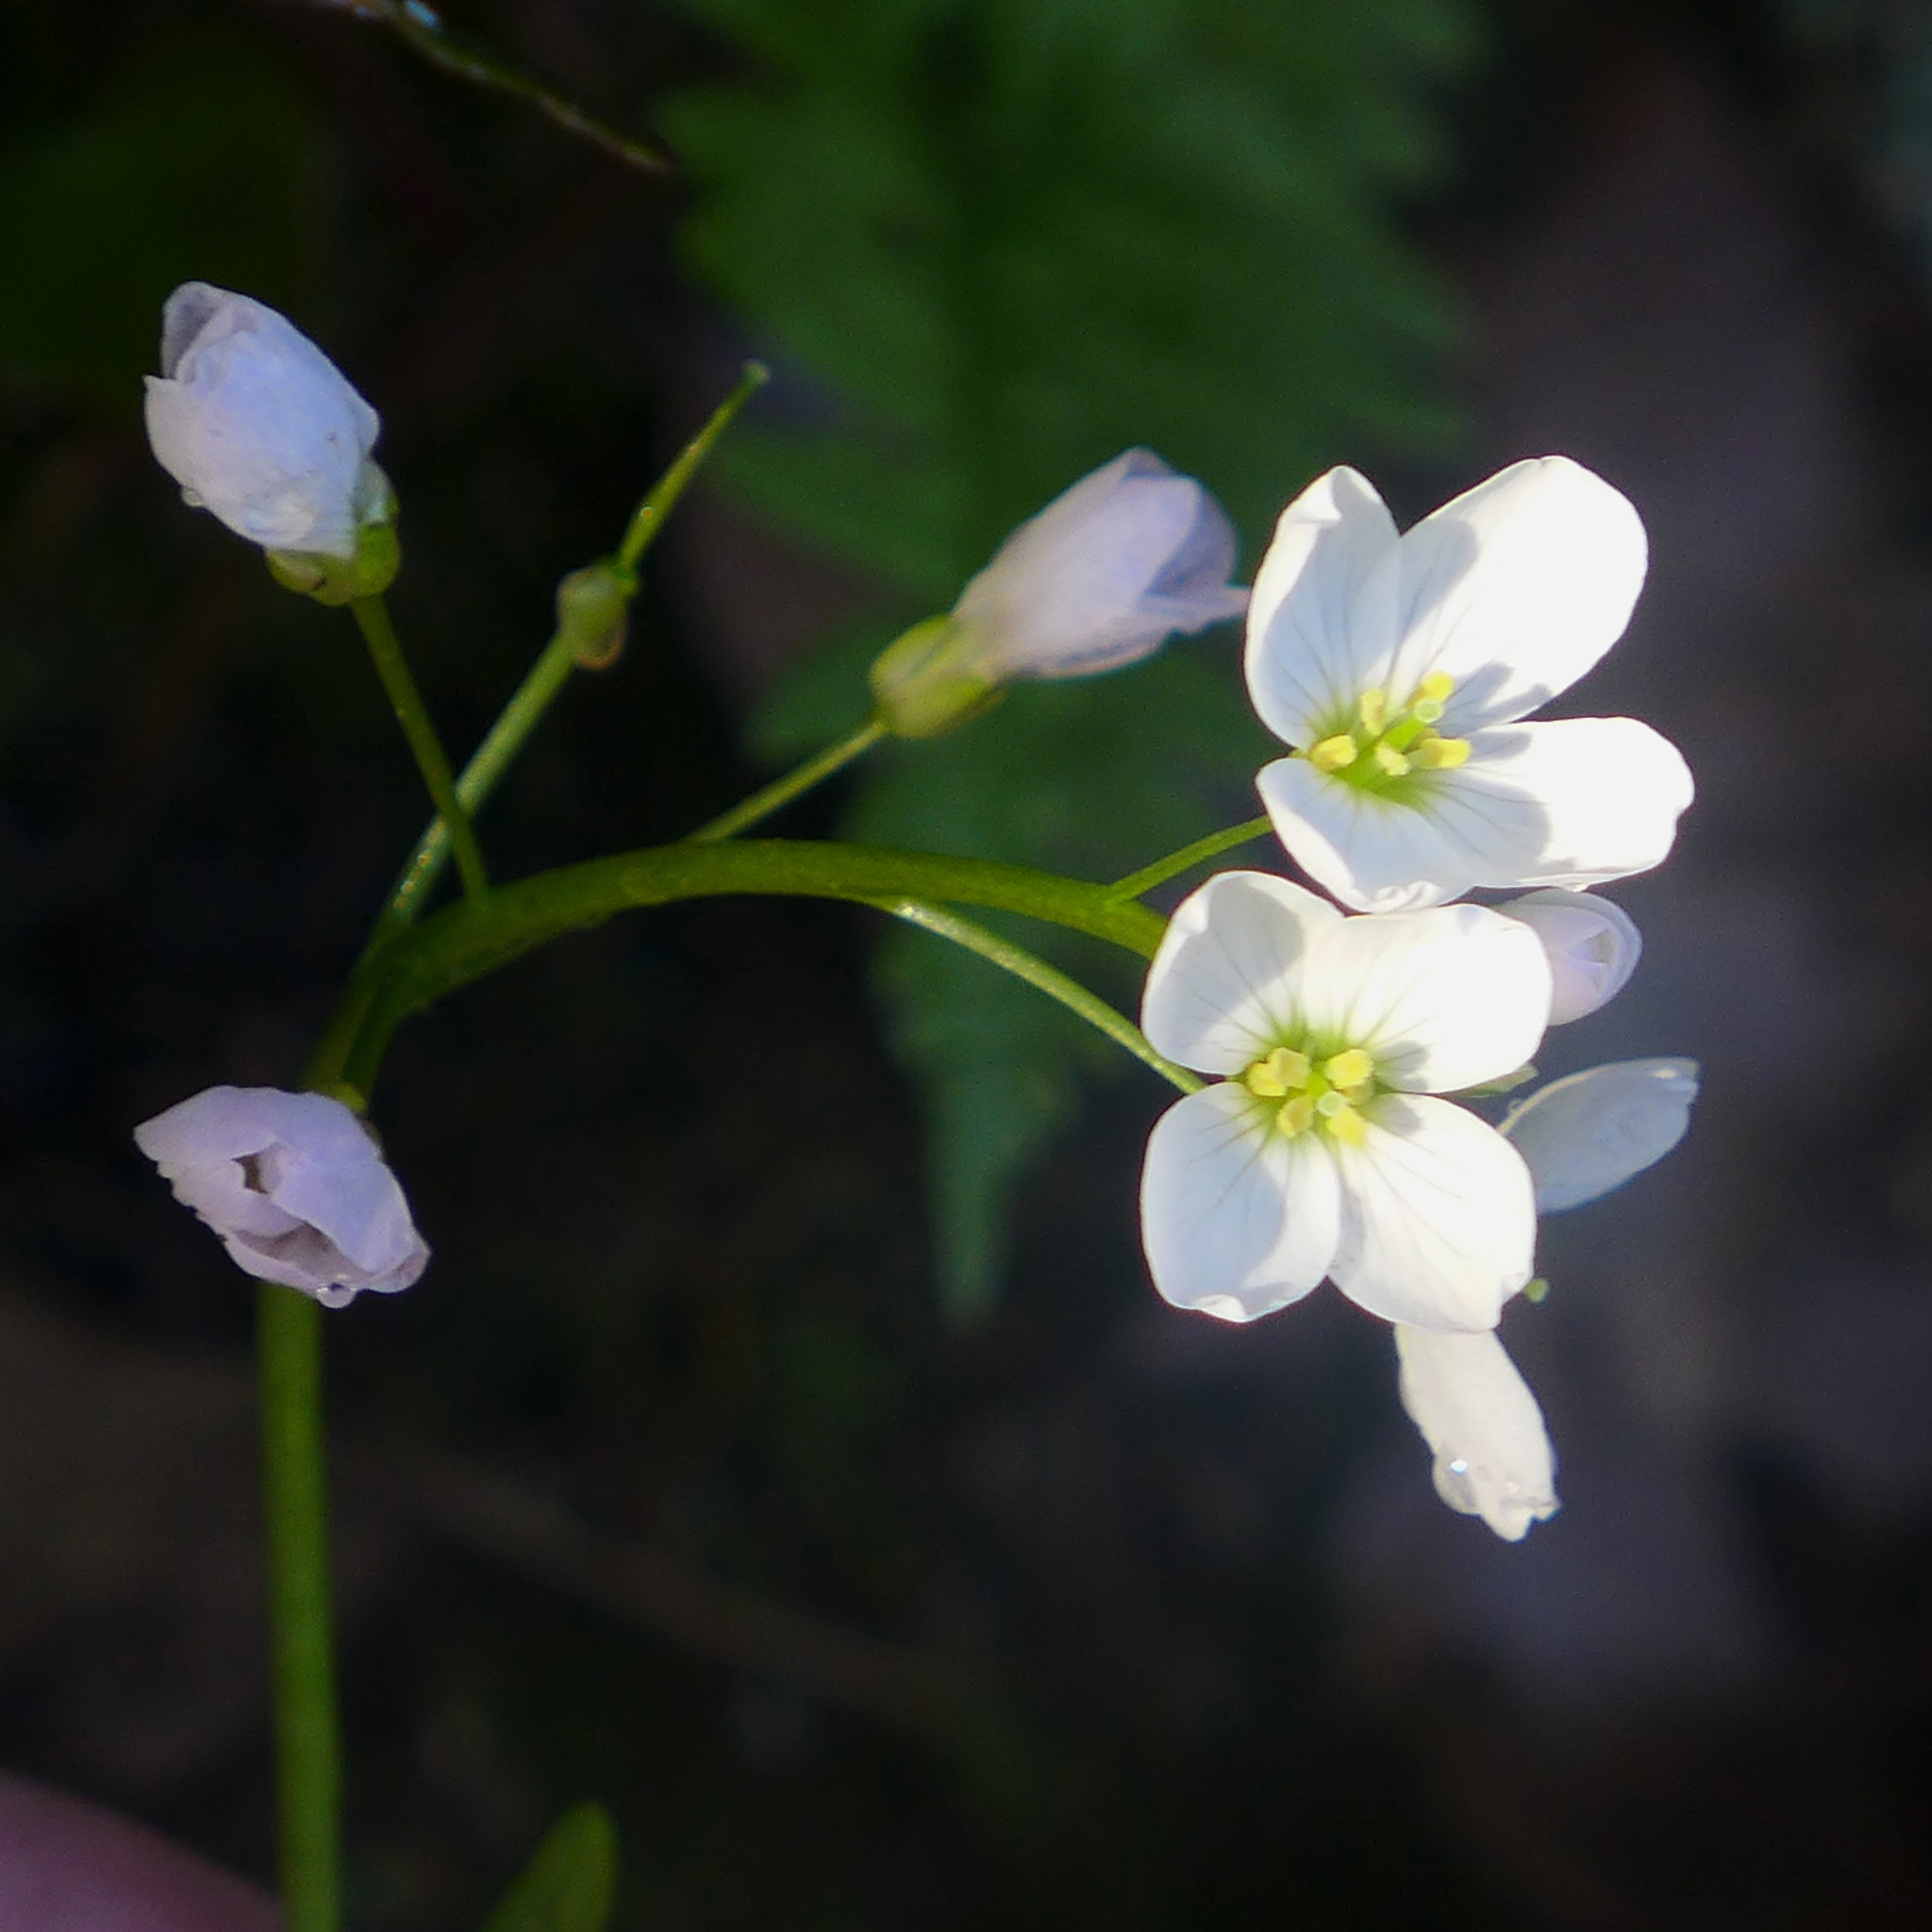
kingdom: Plantae
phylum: Tracheophyta
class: Magnoliopsida
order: Brassicales
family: Brassicaceae
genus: Cardamine
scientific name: Cardamine californica
